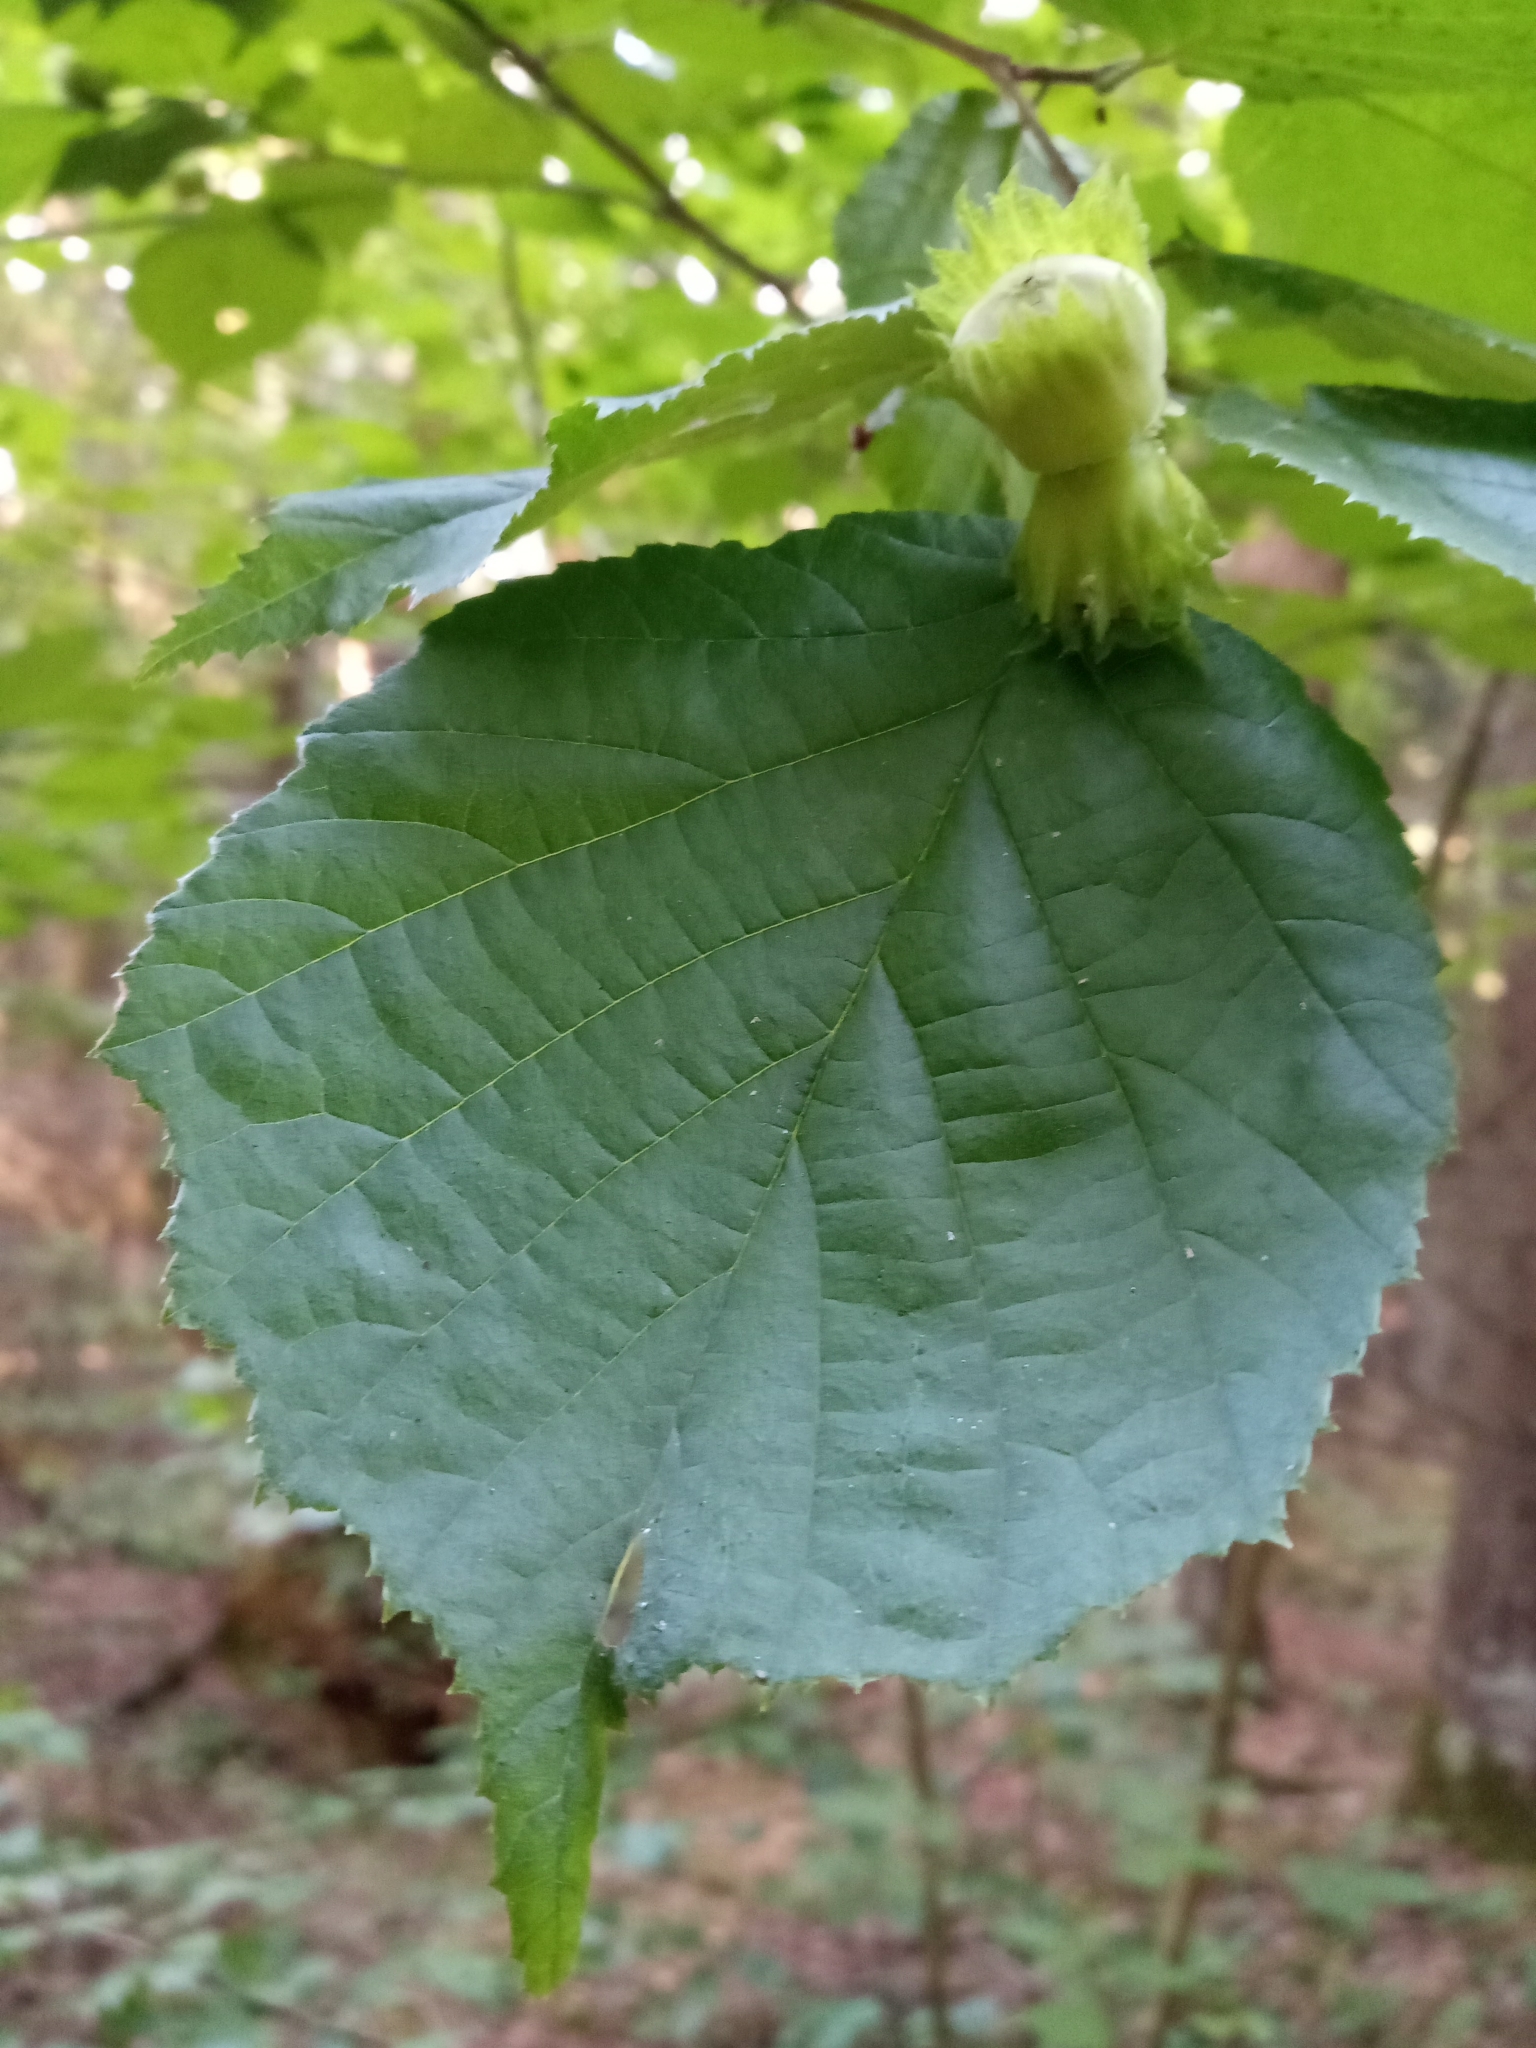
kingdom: Plantae
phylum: Tracheophyta
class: Magnoliopsida
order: Fagales
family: Betulaceae
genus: Corylus
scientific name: Corylus avellana
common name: European hazel
